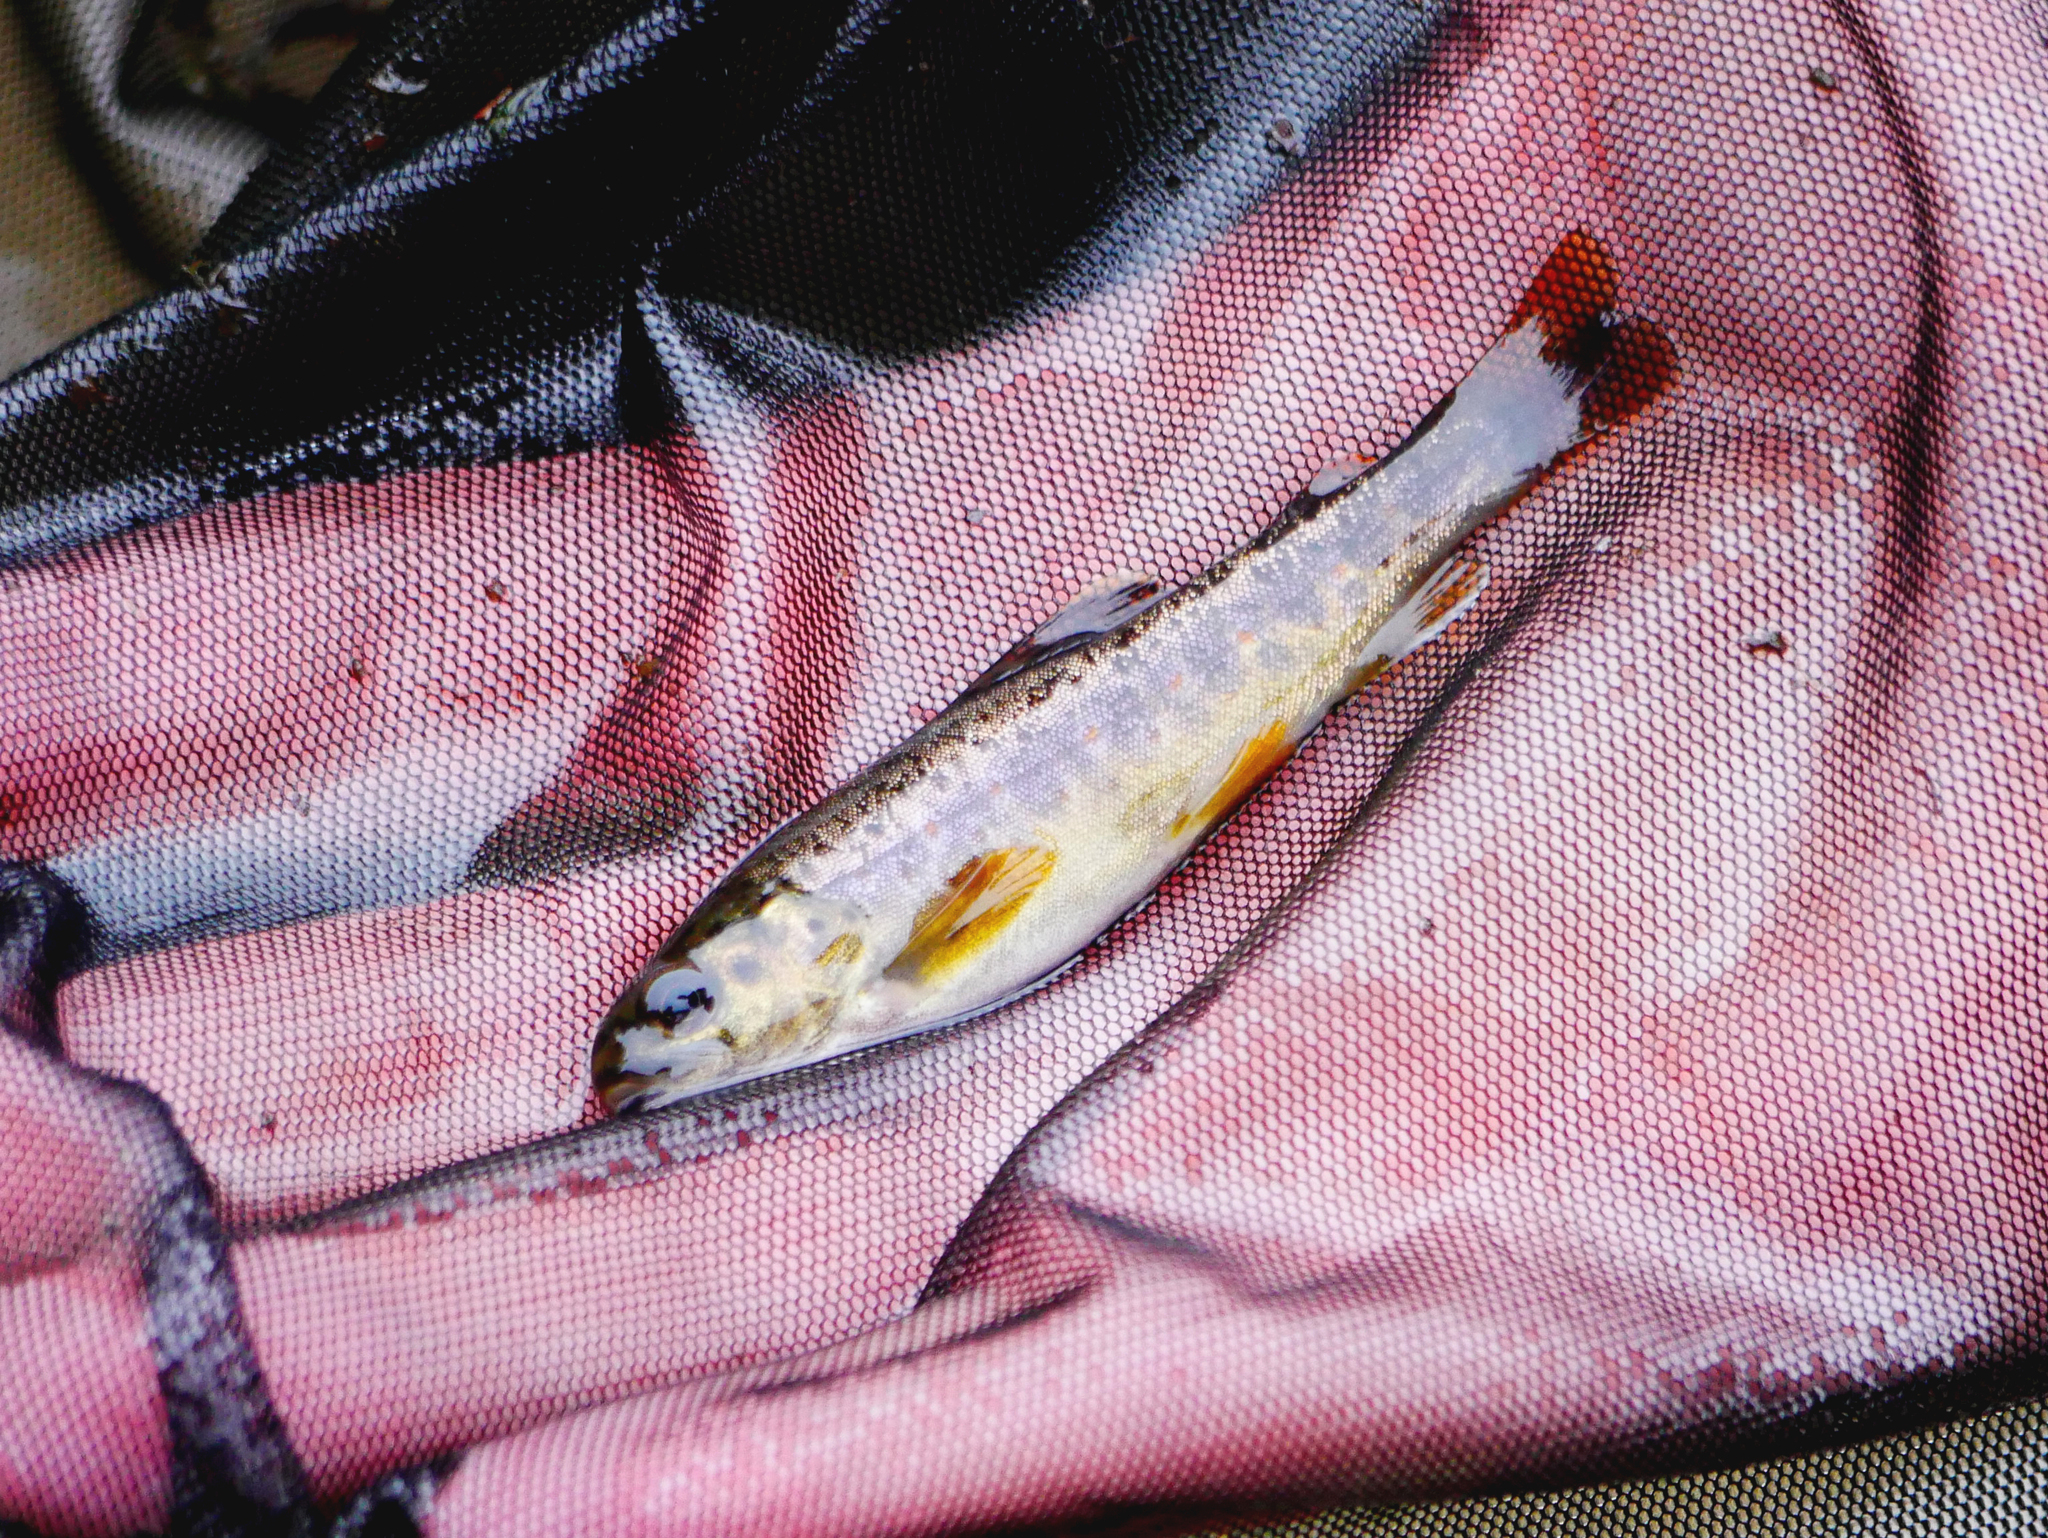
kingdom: Animalia
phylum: Chordata
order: Salmoniformes
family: Salmonidae
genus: Salmo
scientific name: Salmo trutta
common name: Brown trout
